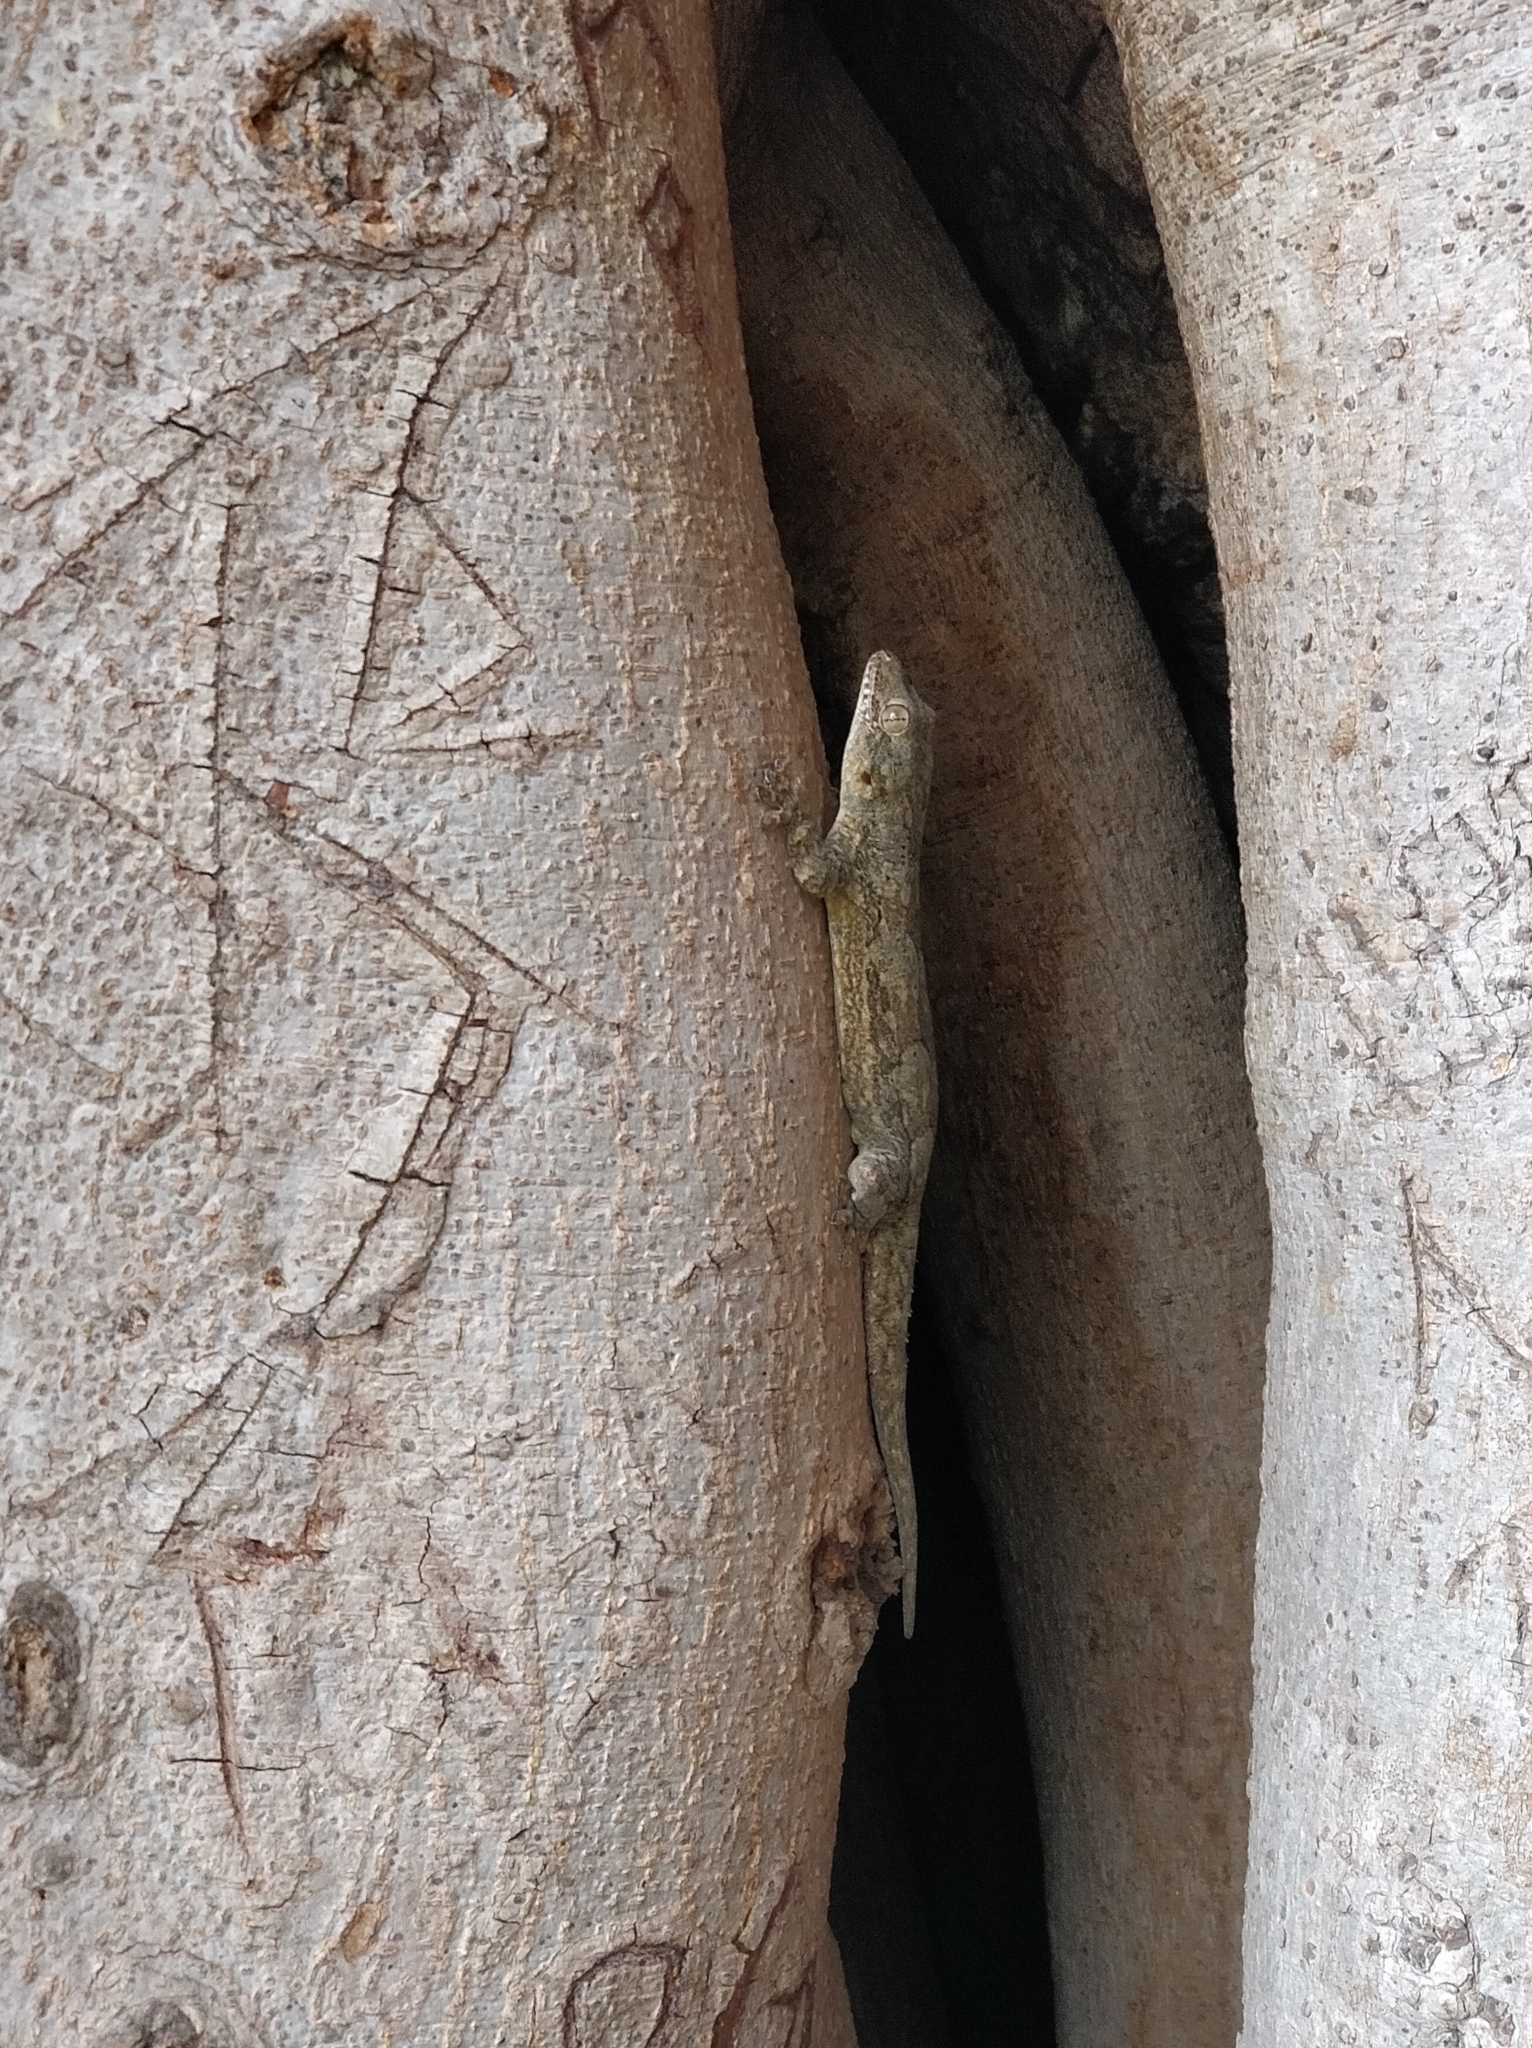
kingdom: Animalia
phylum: Chordata
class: Squamata
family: Gekkonidae
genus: Hemidactylus
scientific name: Hemidactylus leschenaultii
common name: Leschenault's leaf-toed gecko
